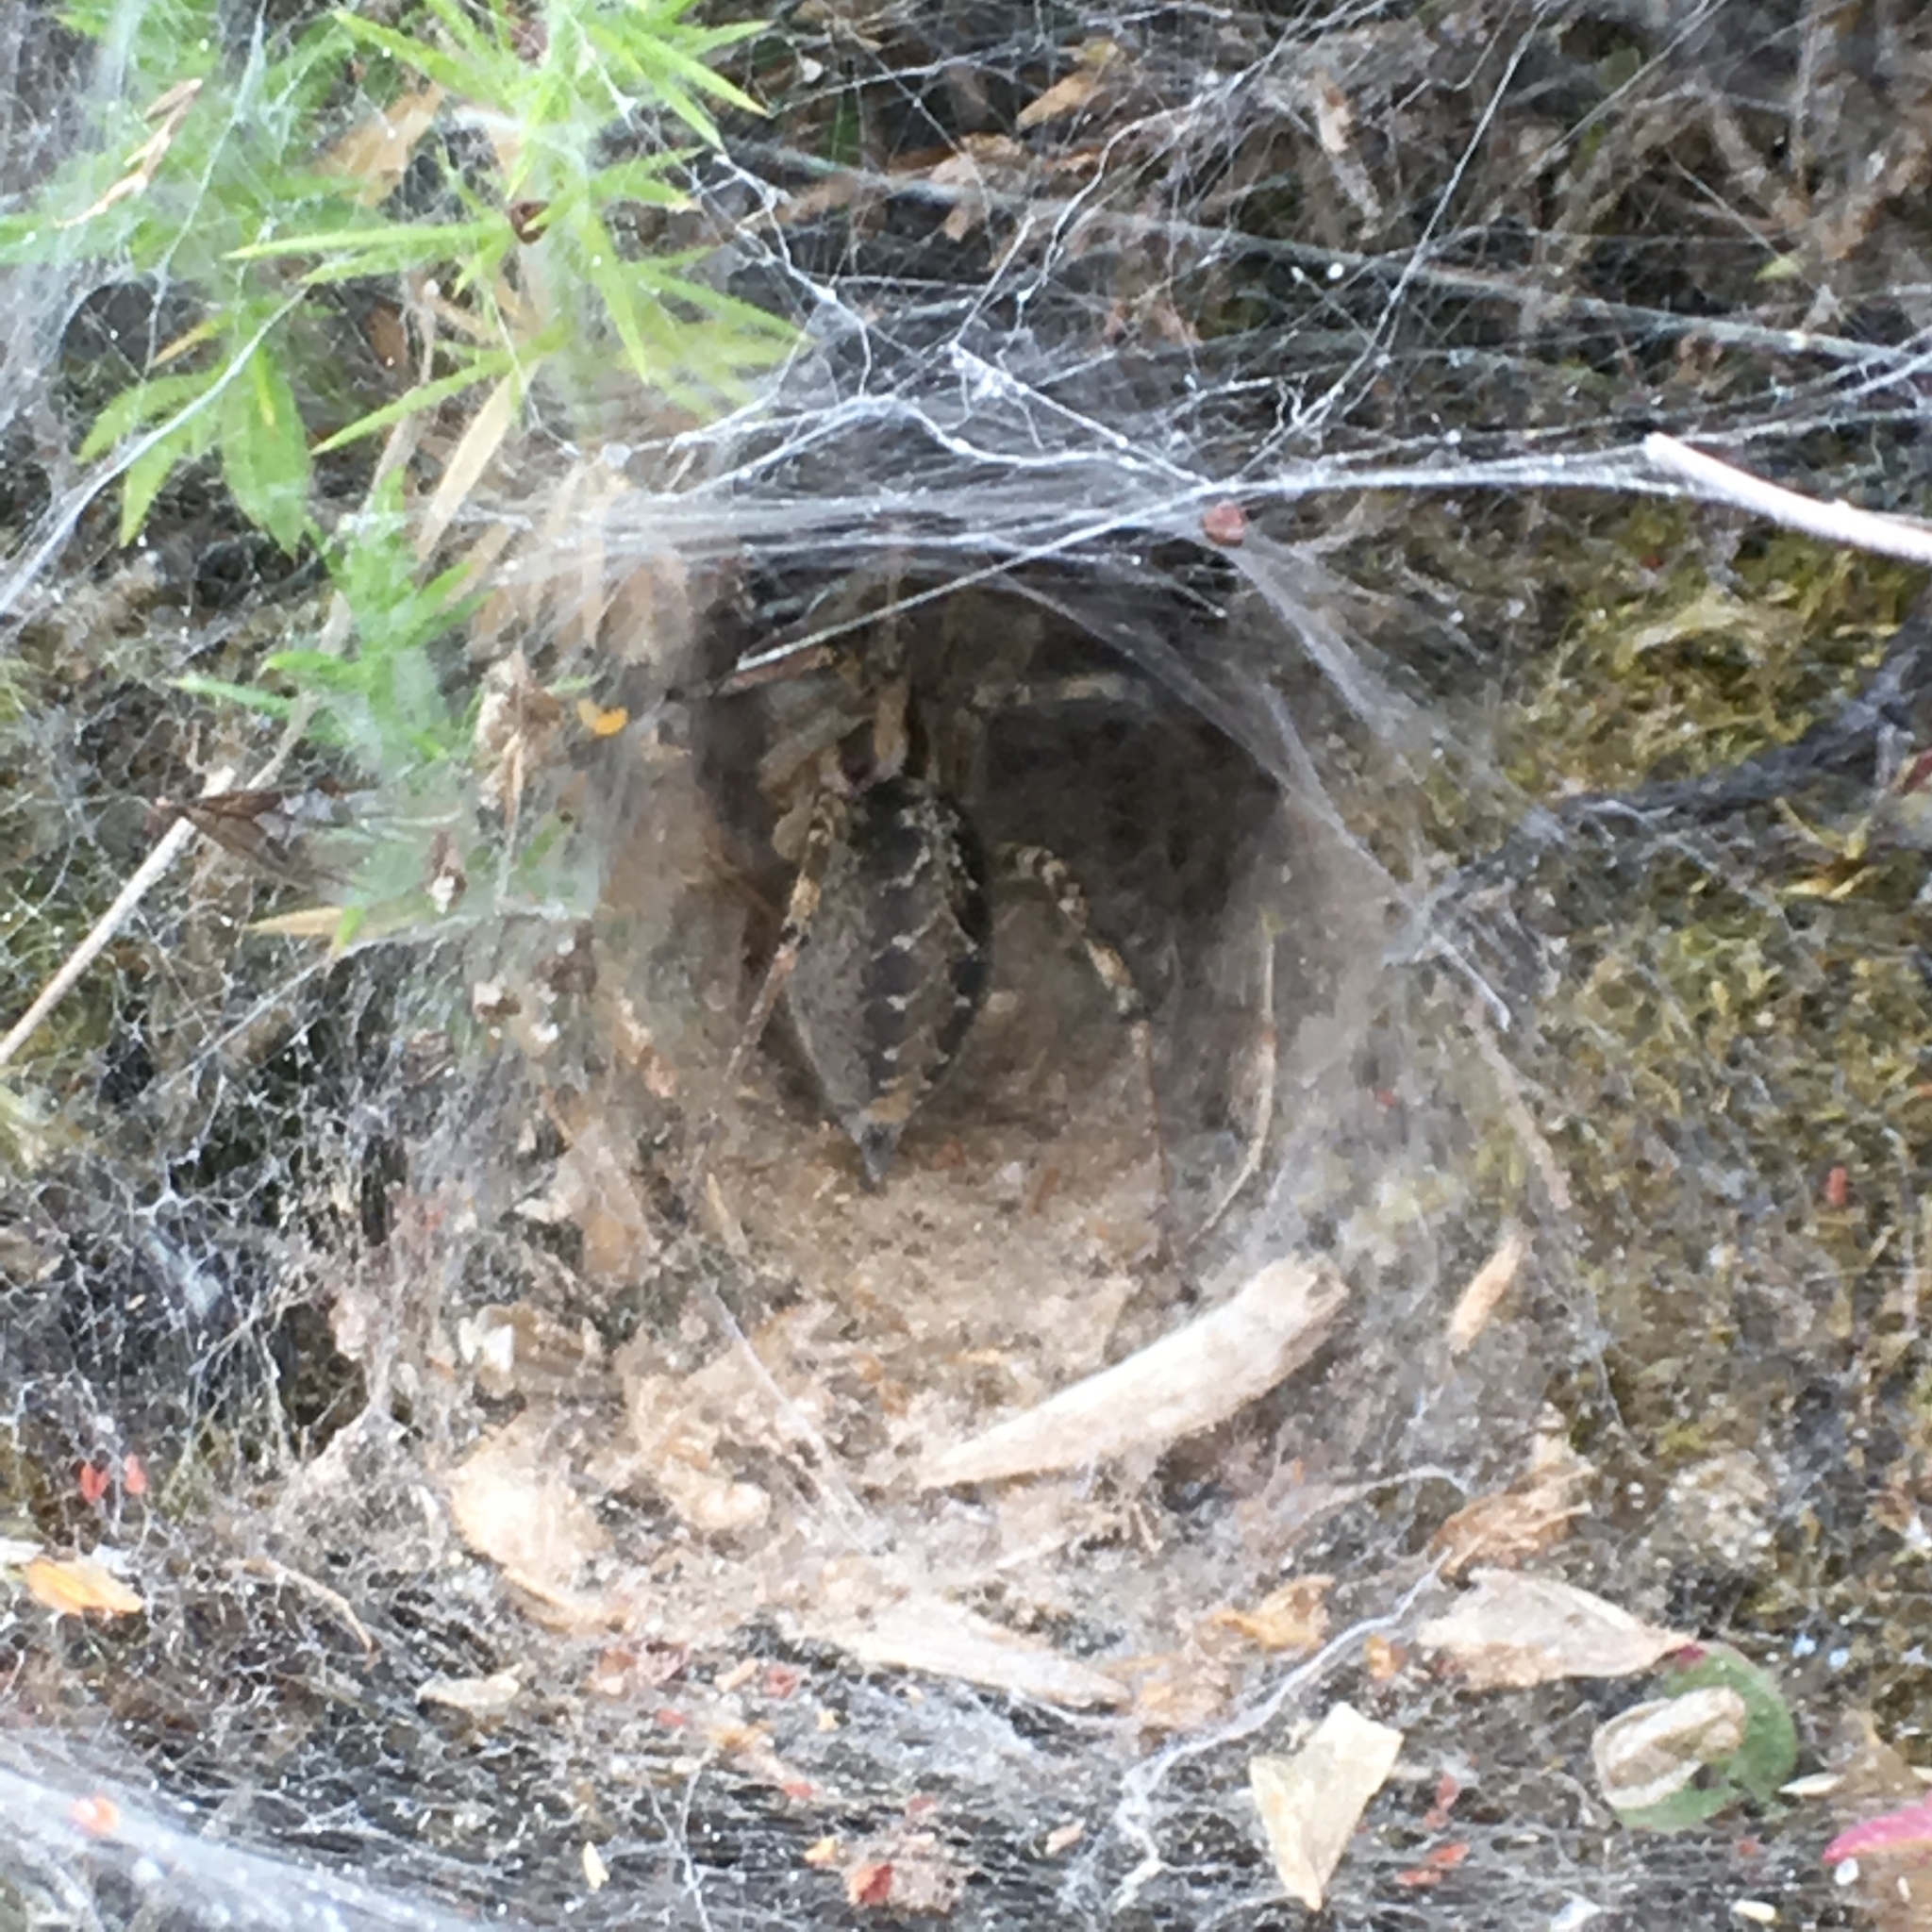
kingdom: Animalia
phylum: Arthropoda
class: Arachnida
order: Araneae
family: Agelenidae
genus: Agelena
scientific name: Agelena labyrinthica
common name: Labyrinth spider
